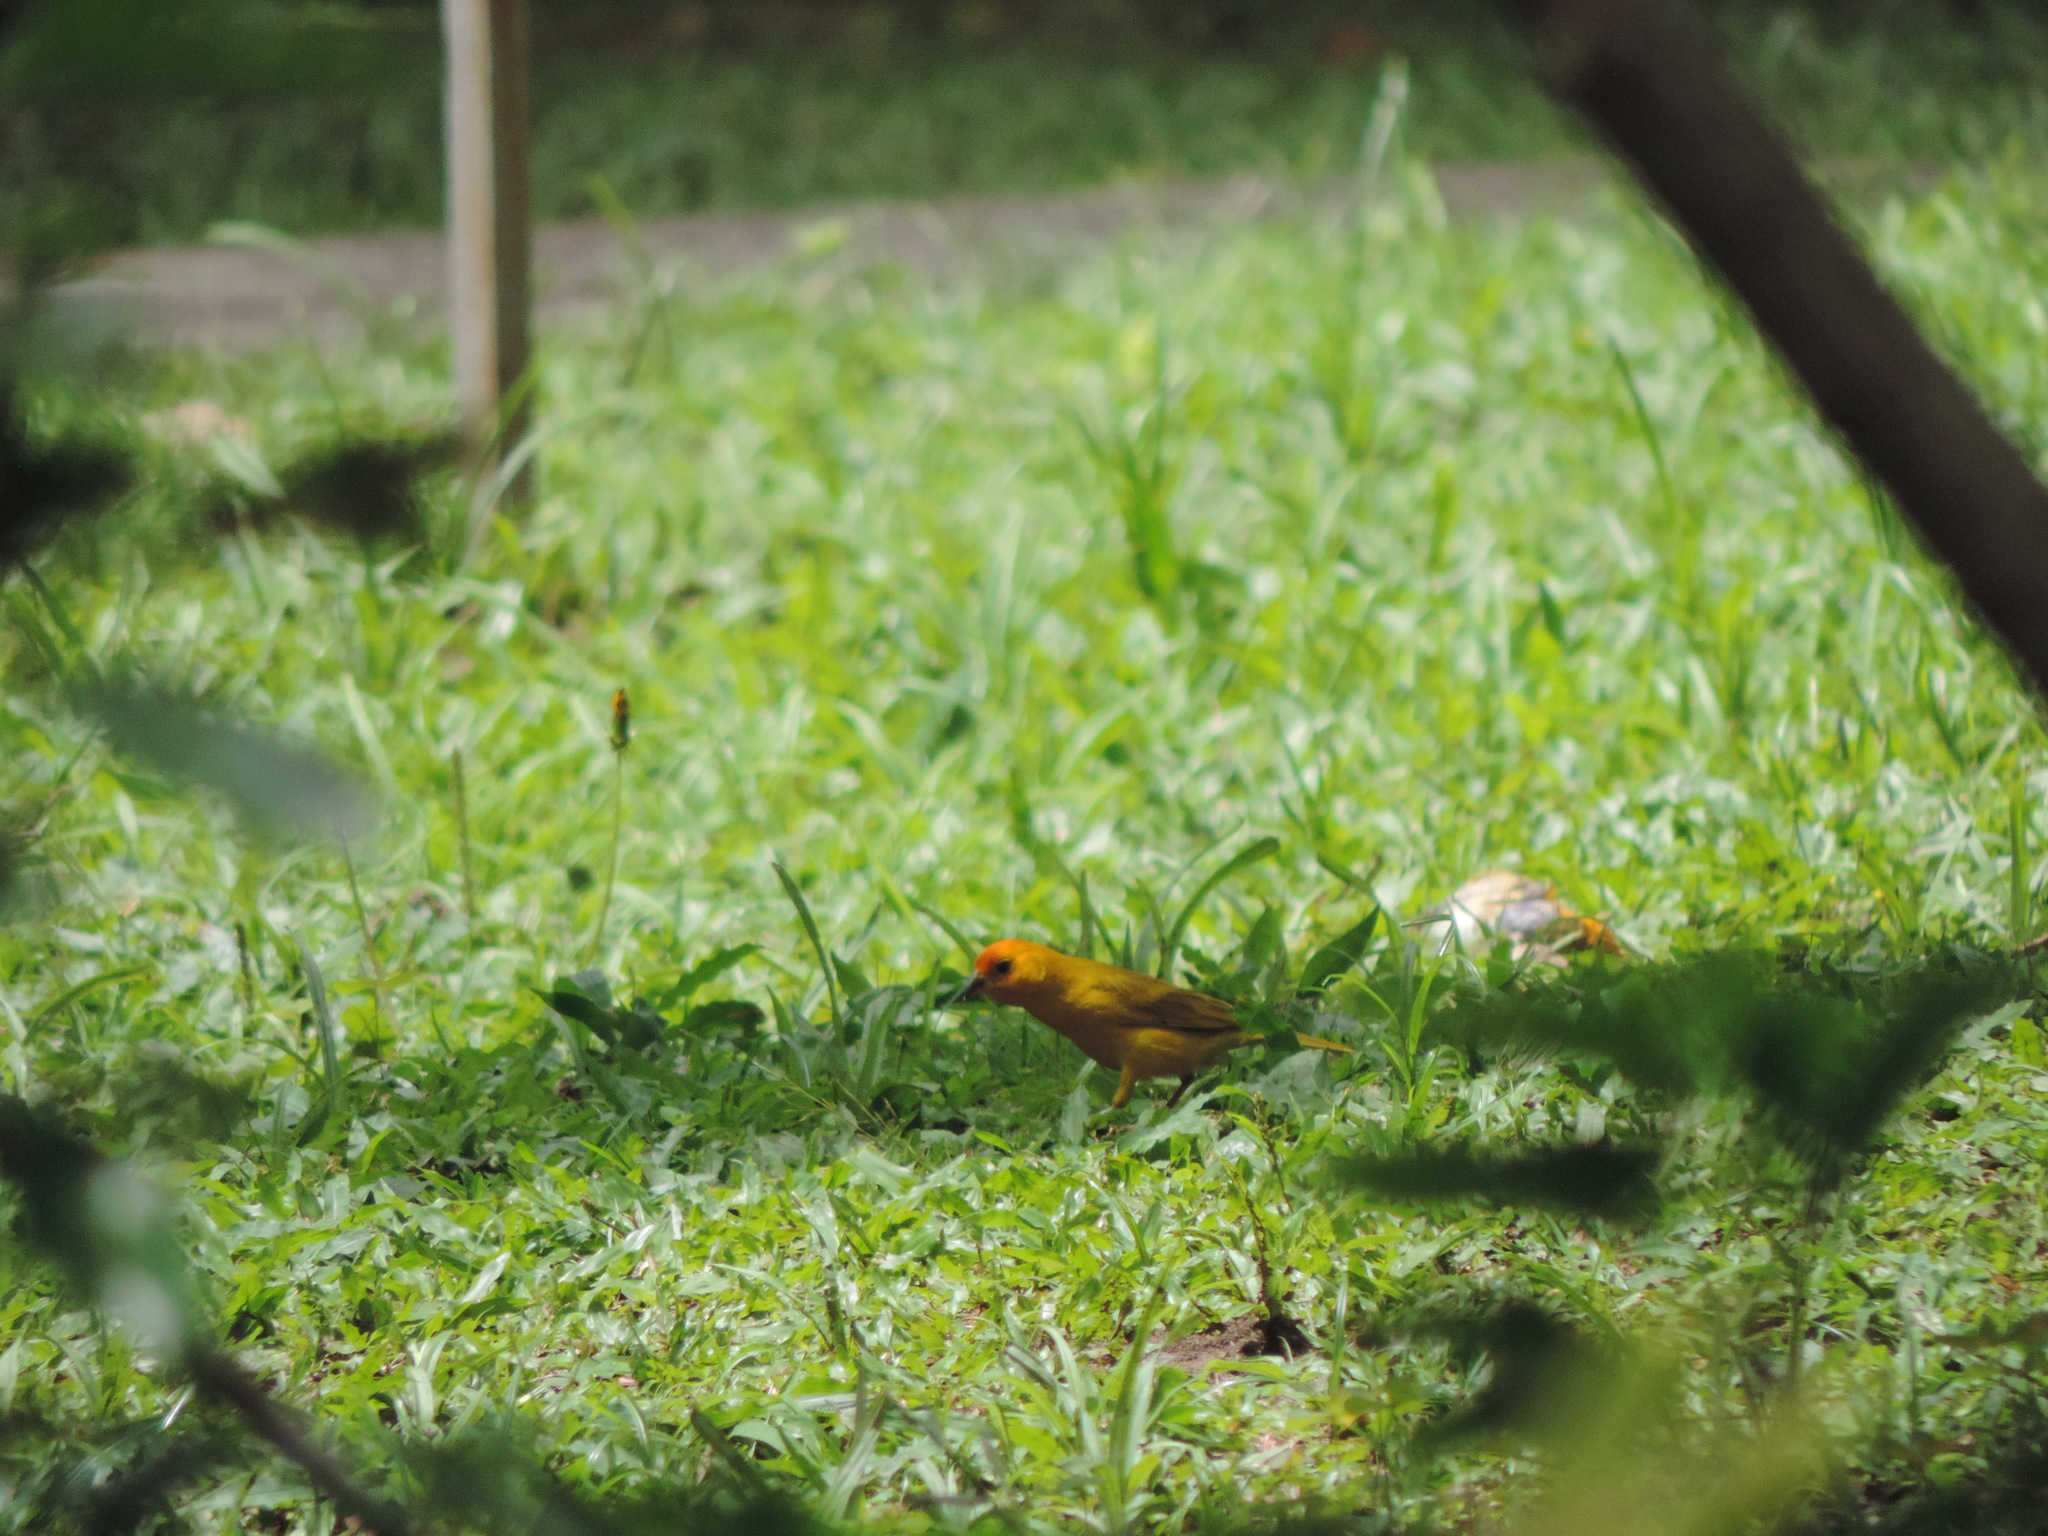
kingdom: Animalia
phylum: Chordata
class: Aves
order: Passeriformes
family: Thraupidae
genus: Sicalis
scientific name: Sicalis flaveola
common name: Saffron finch
